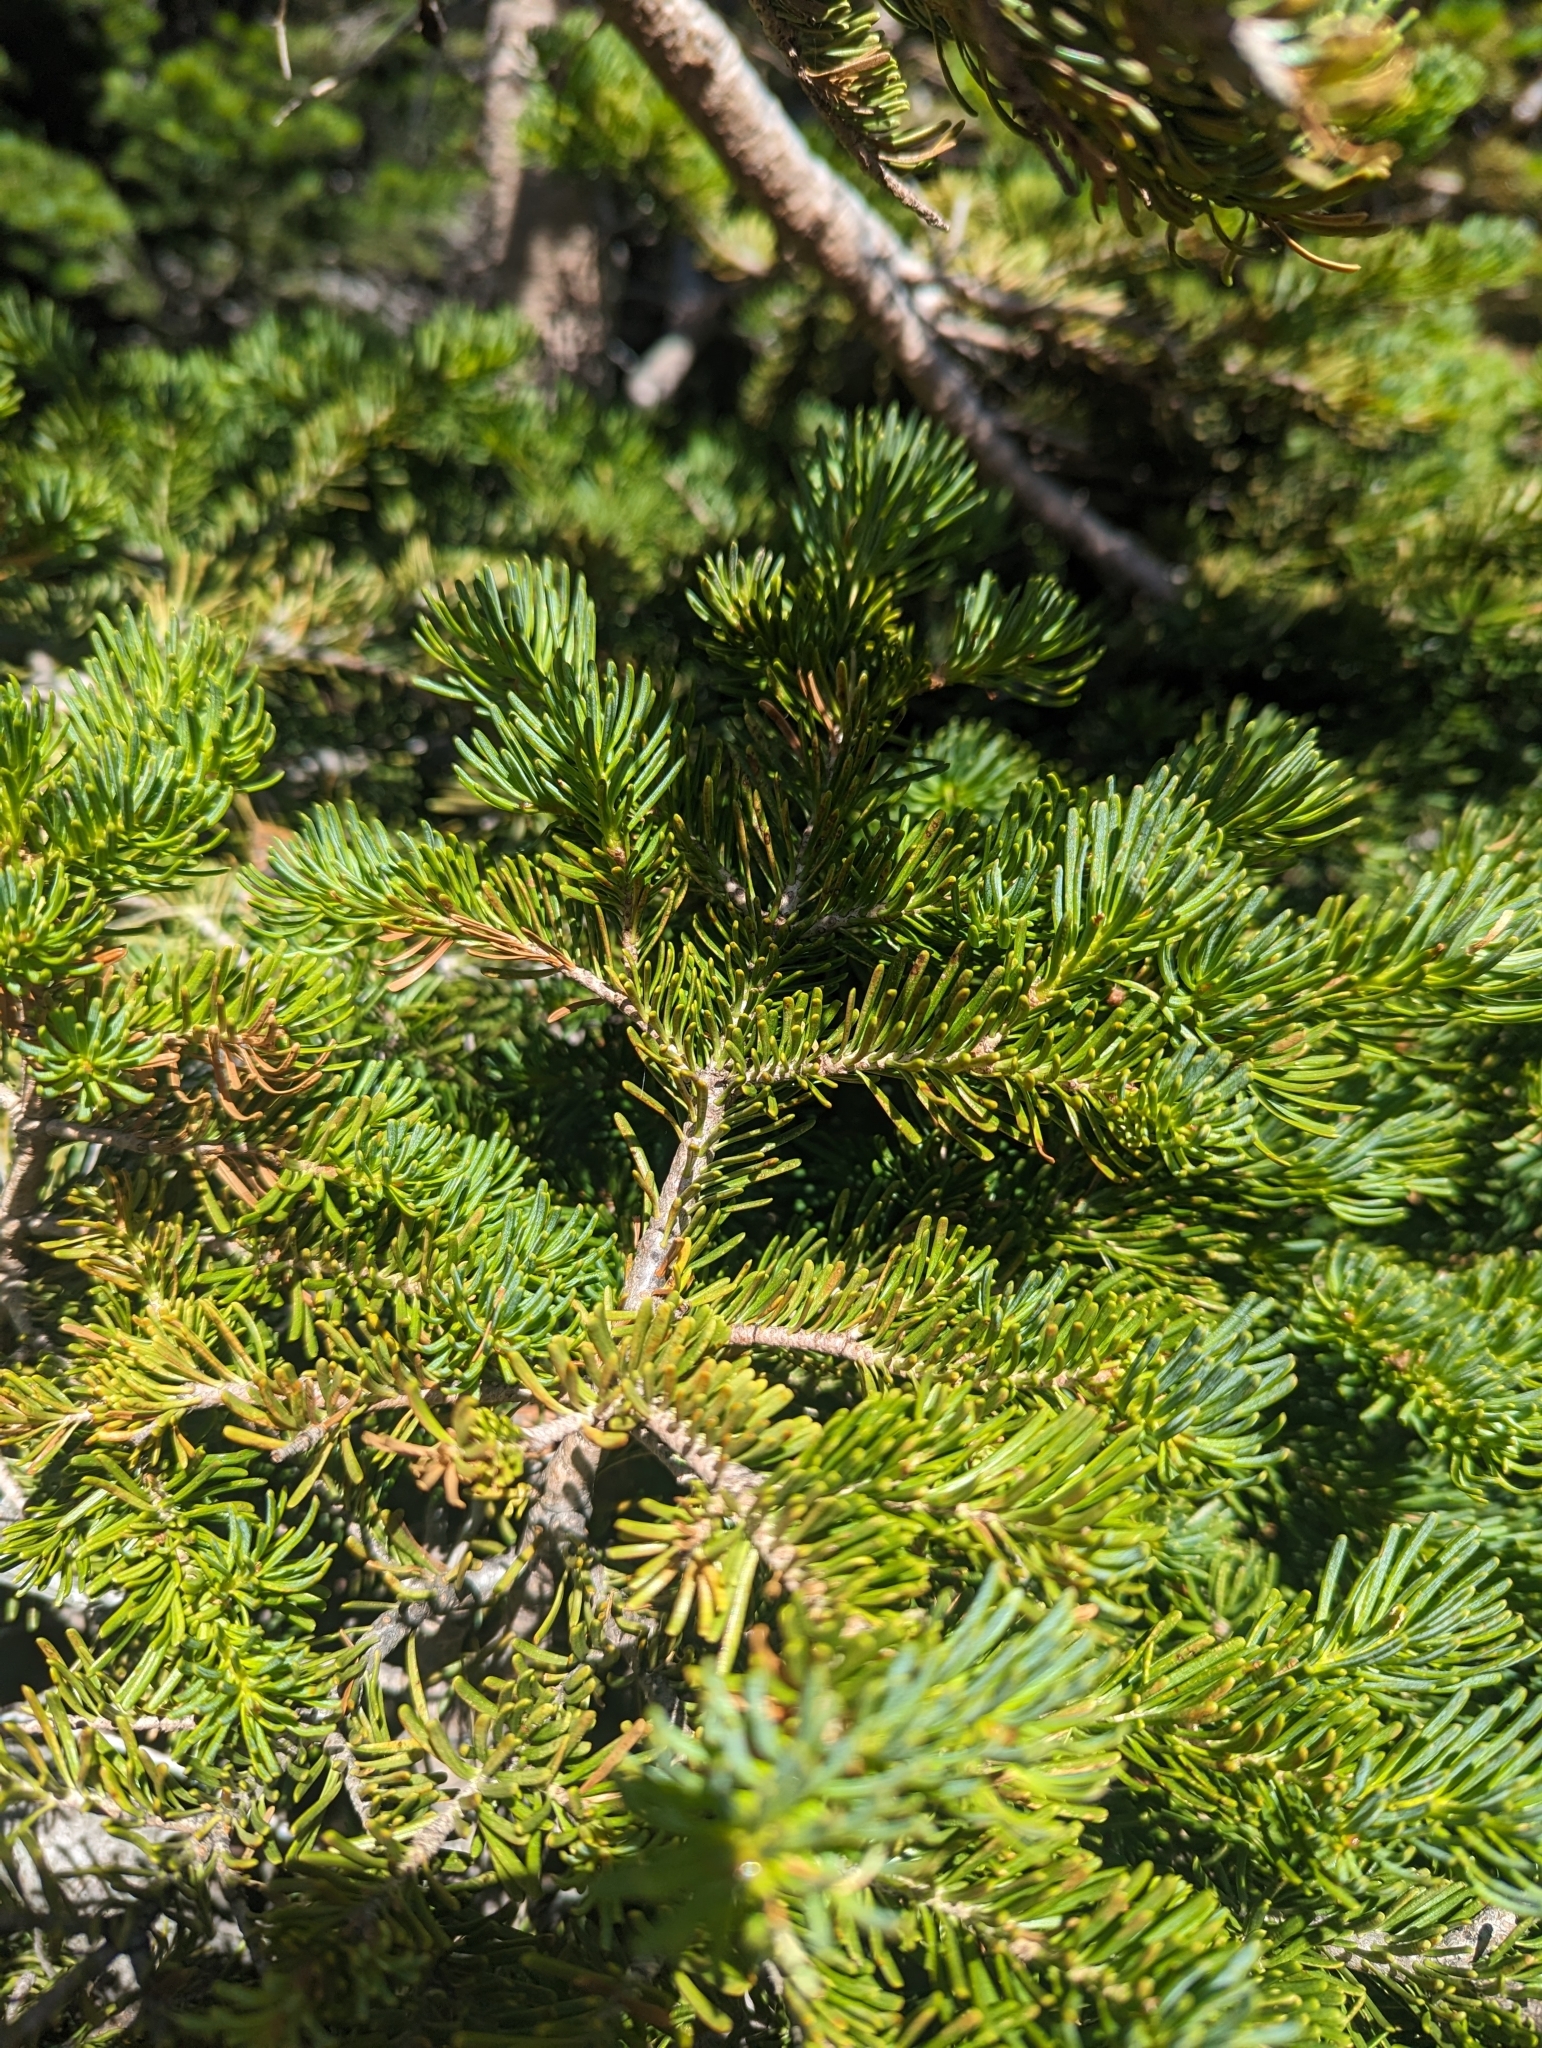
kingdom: Plantae
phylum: Tracheophyta
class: Pinopsida
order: Pinales
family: Pinaceae
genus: Abies
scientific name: Abies lasiocarpa
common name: Subalpine fir
